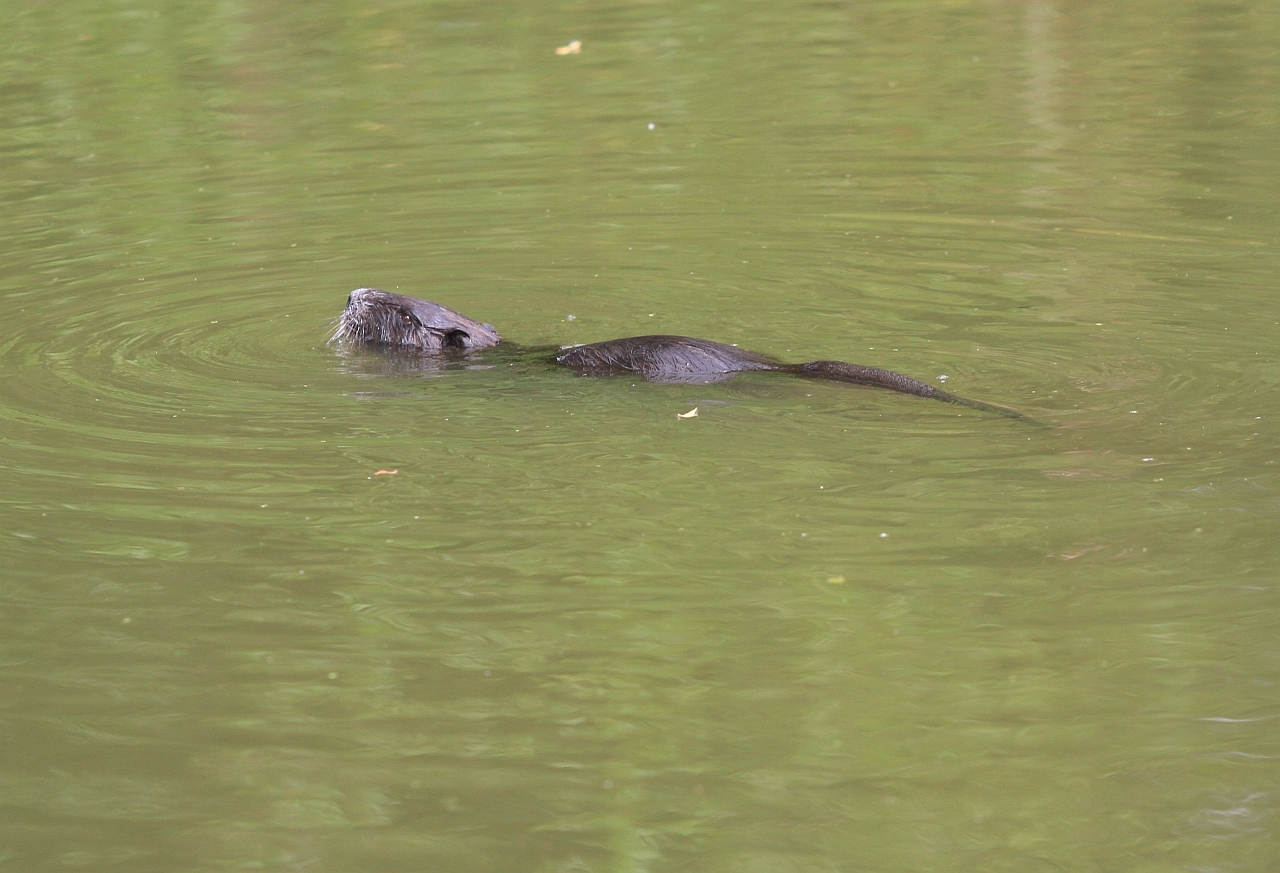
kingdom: Animalia
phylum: Chordata
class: Mammalia
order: Rodentia
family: Myocastoridae
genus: Myocastor
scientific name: Myocastor coypus
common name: Coypu
